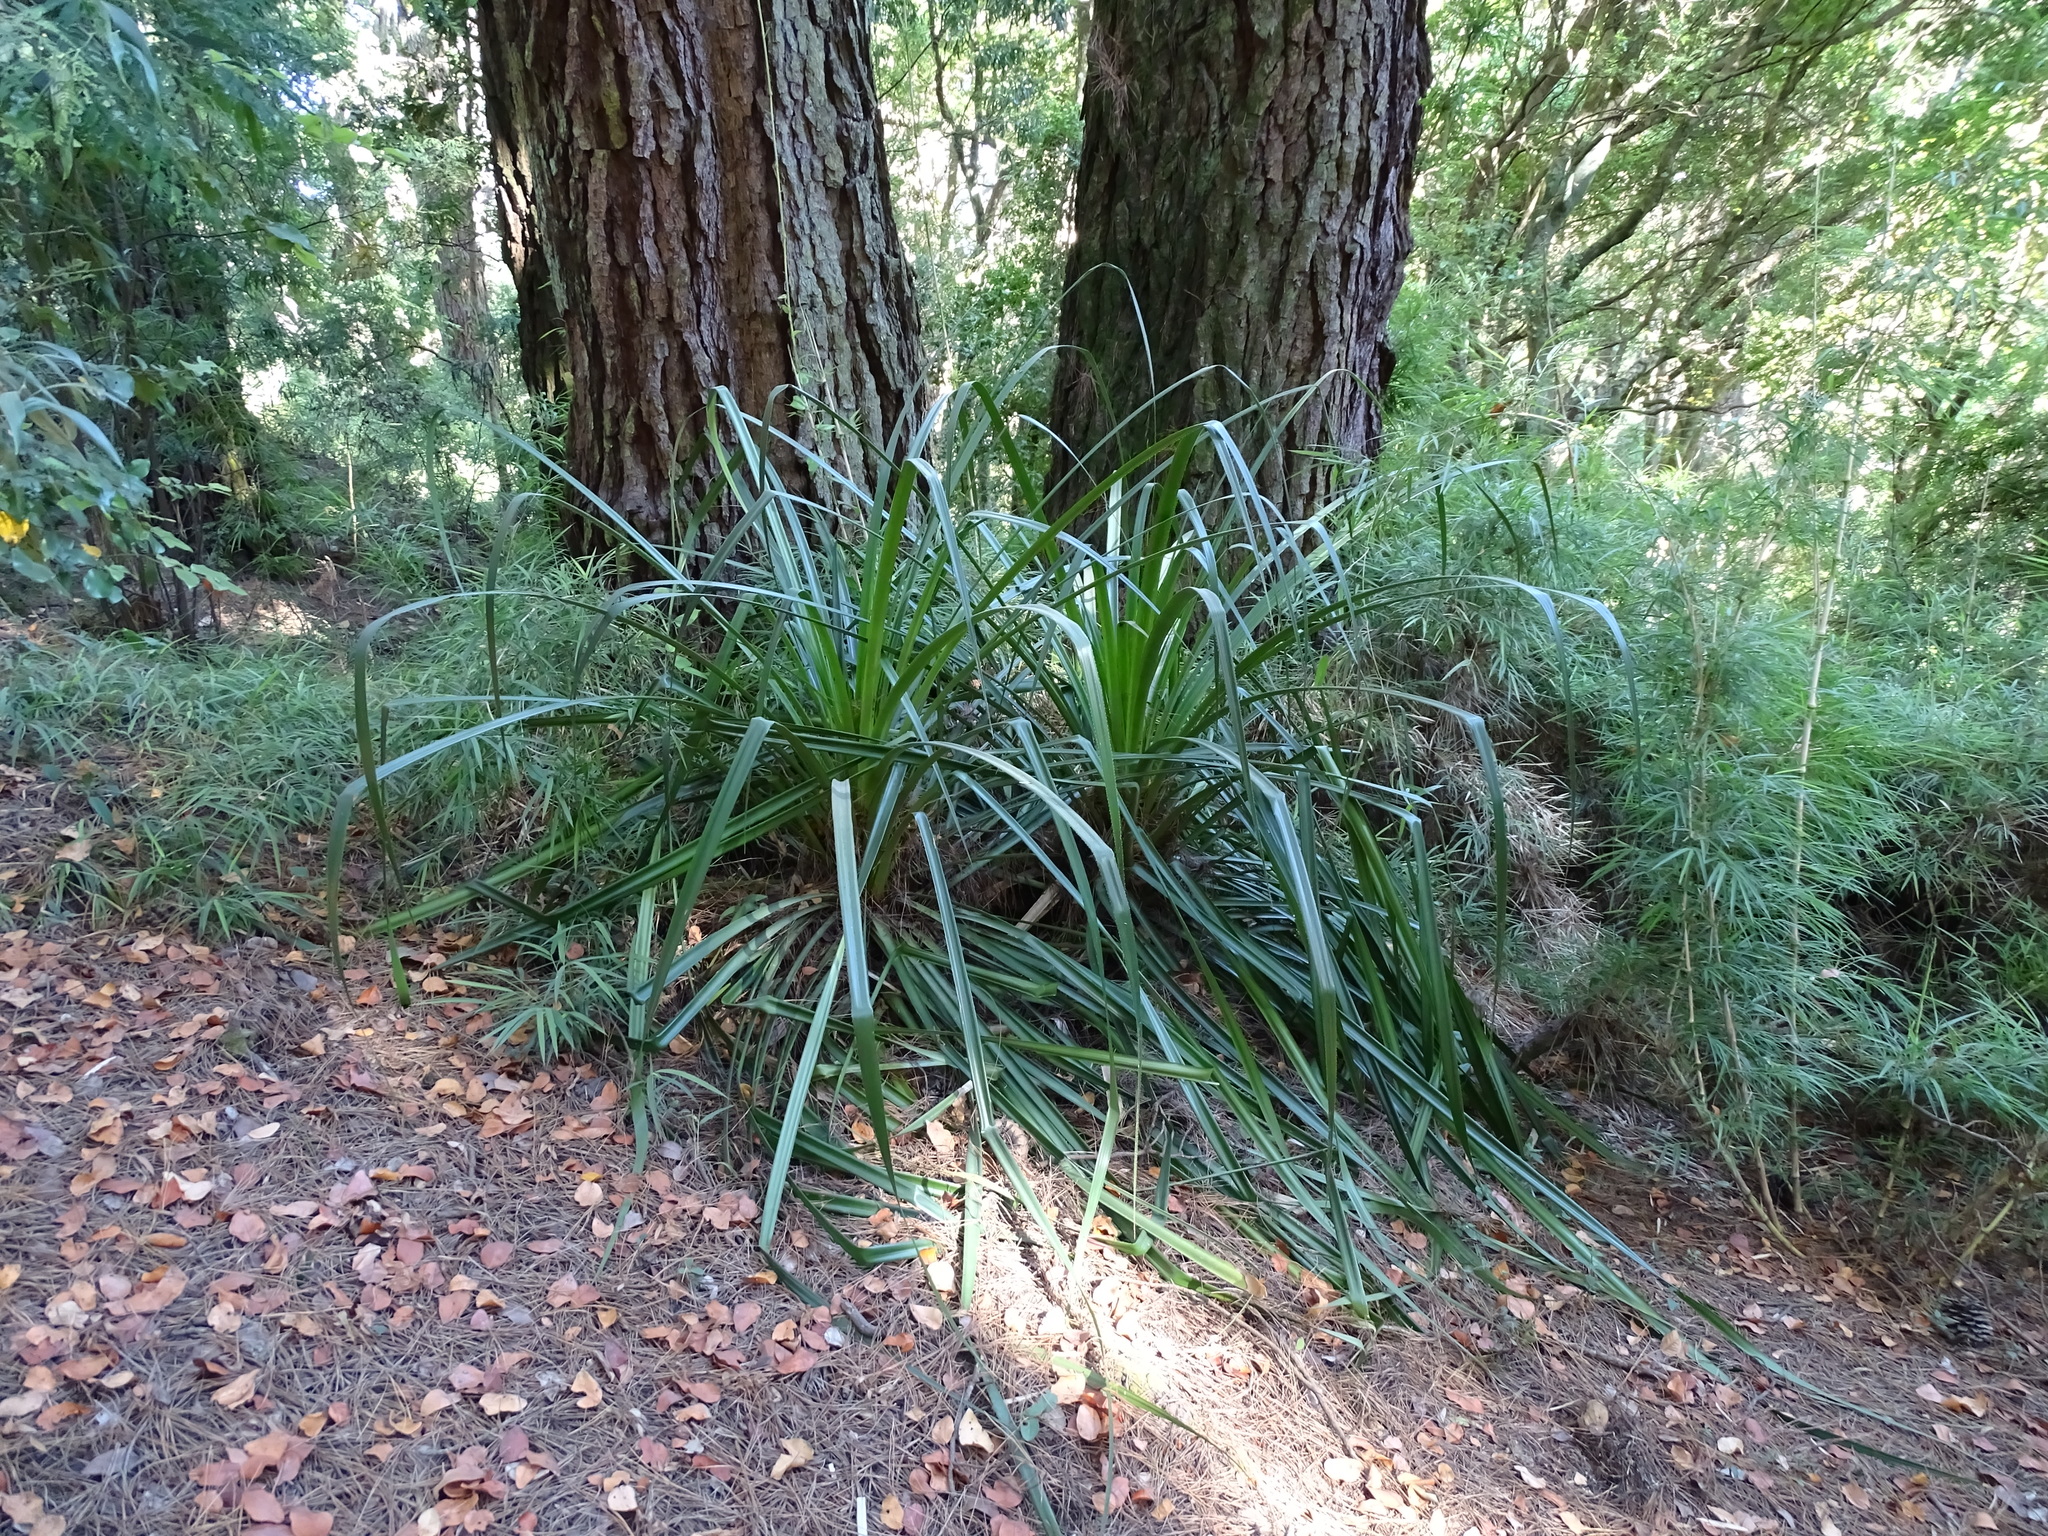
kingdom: Plantae
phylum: Tracheophyta
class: Liliopsida
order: Poales
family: Bromeliaceae
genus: Greigia
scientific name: Greigia sphacelata
